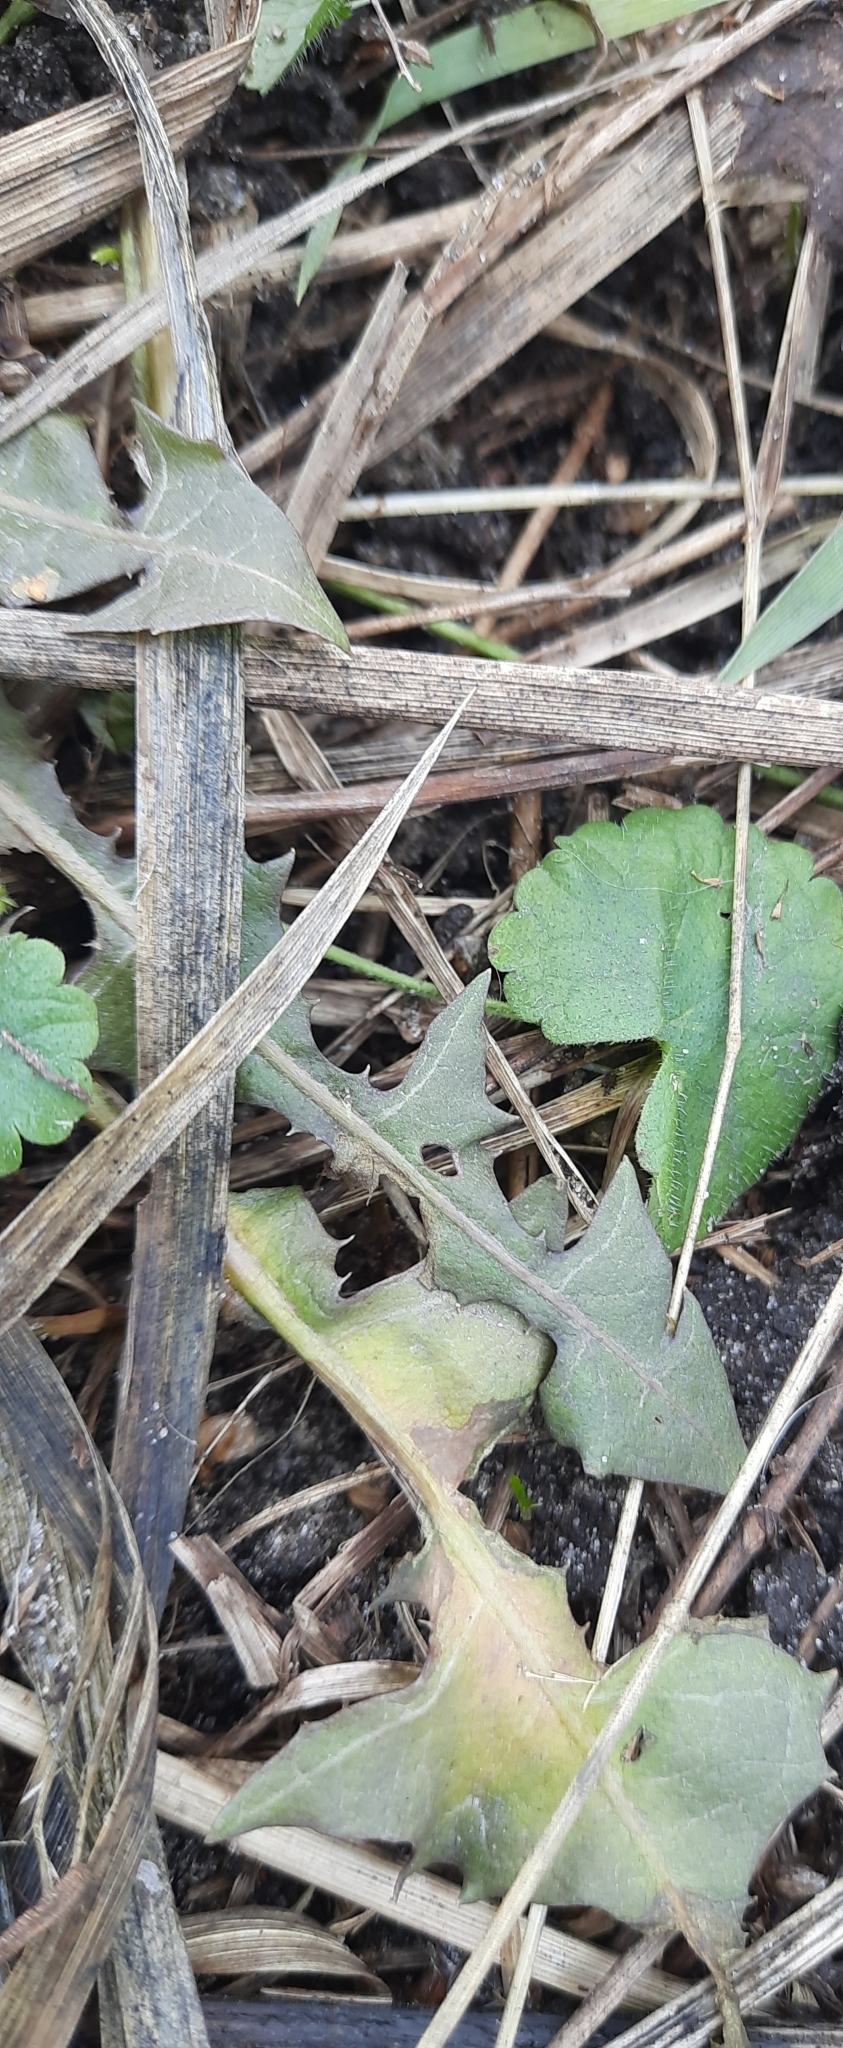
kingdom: Plantae
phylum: Tracheophyta
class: Magnoliopsida
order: Asterales
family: Asteraceae
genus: Taraxacum
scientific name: Taraxacum officinale
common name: Common dandelion
